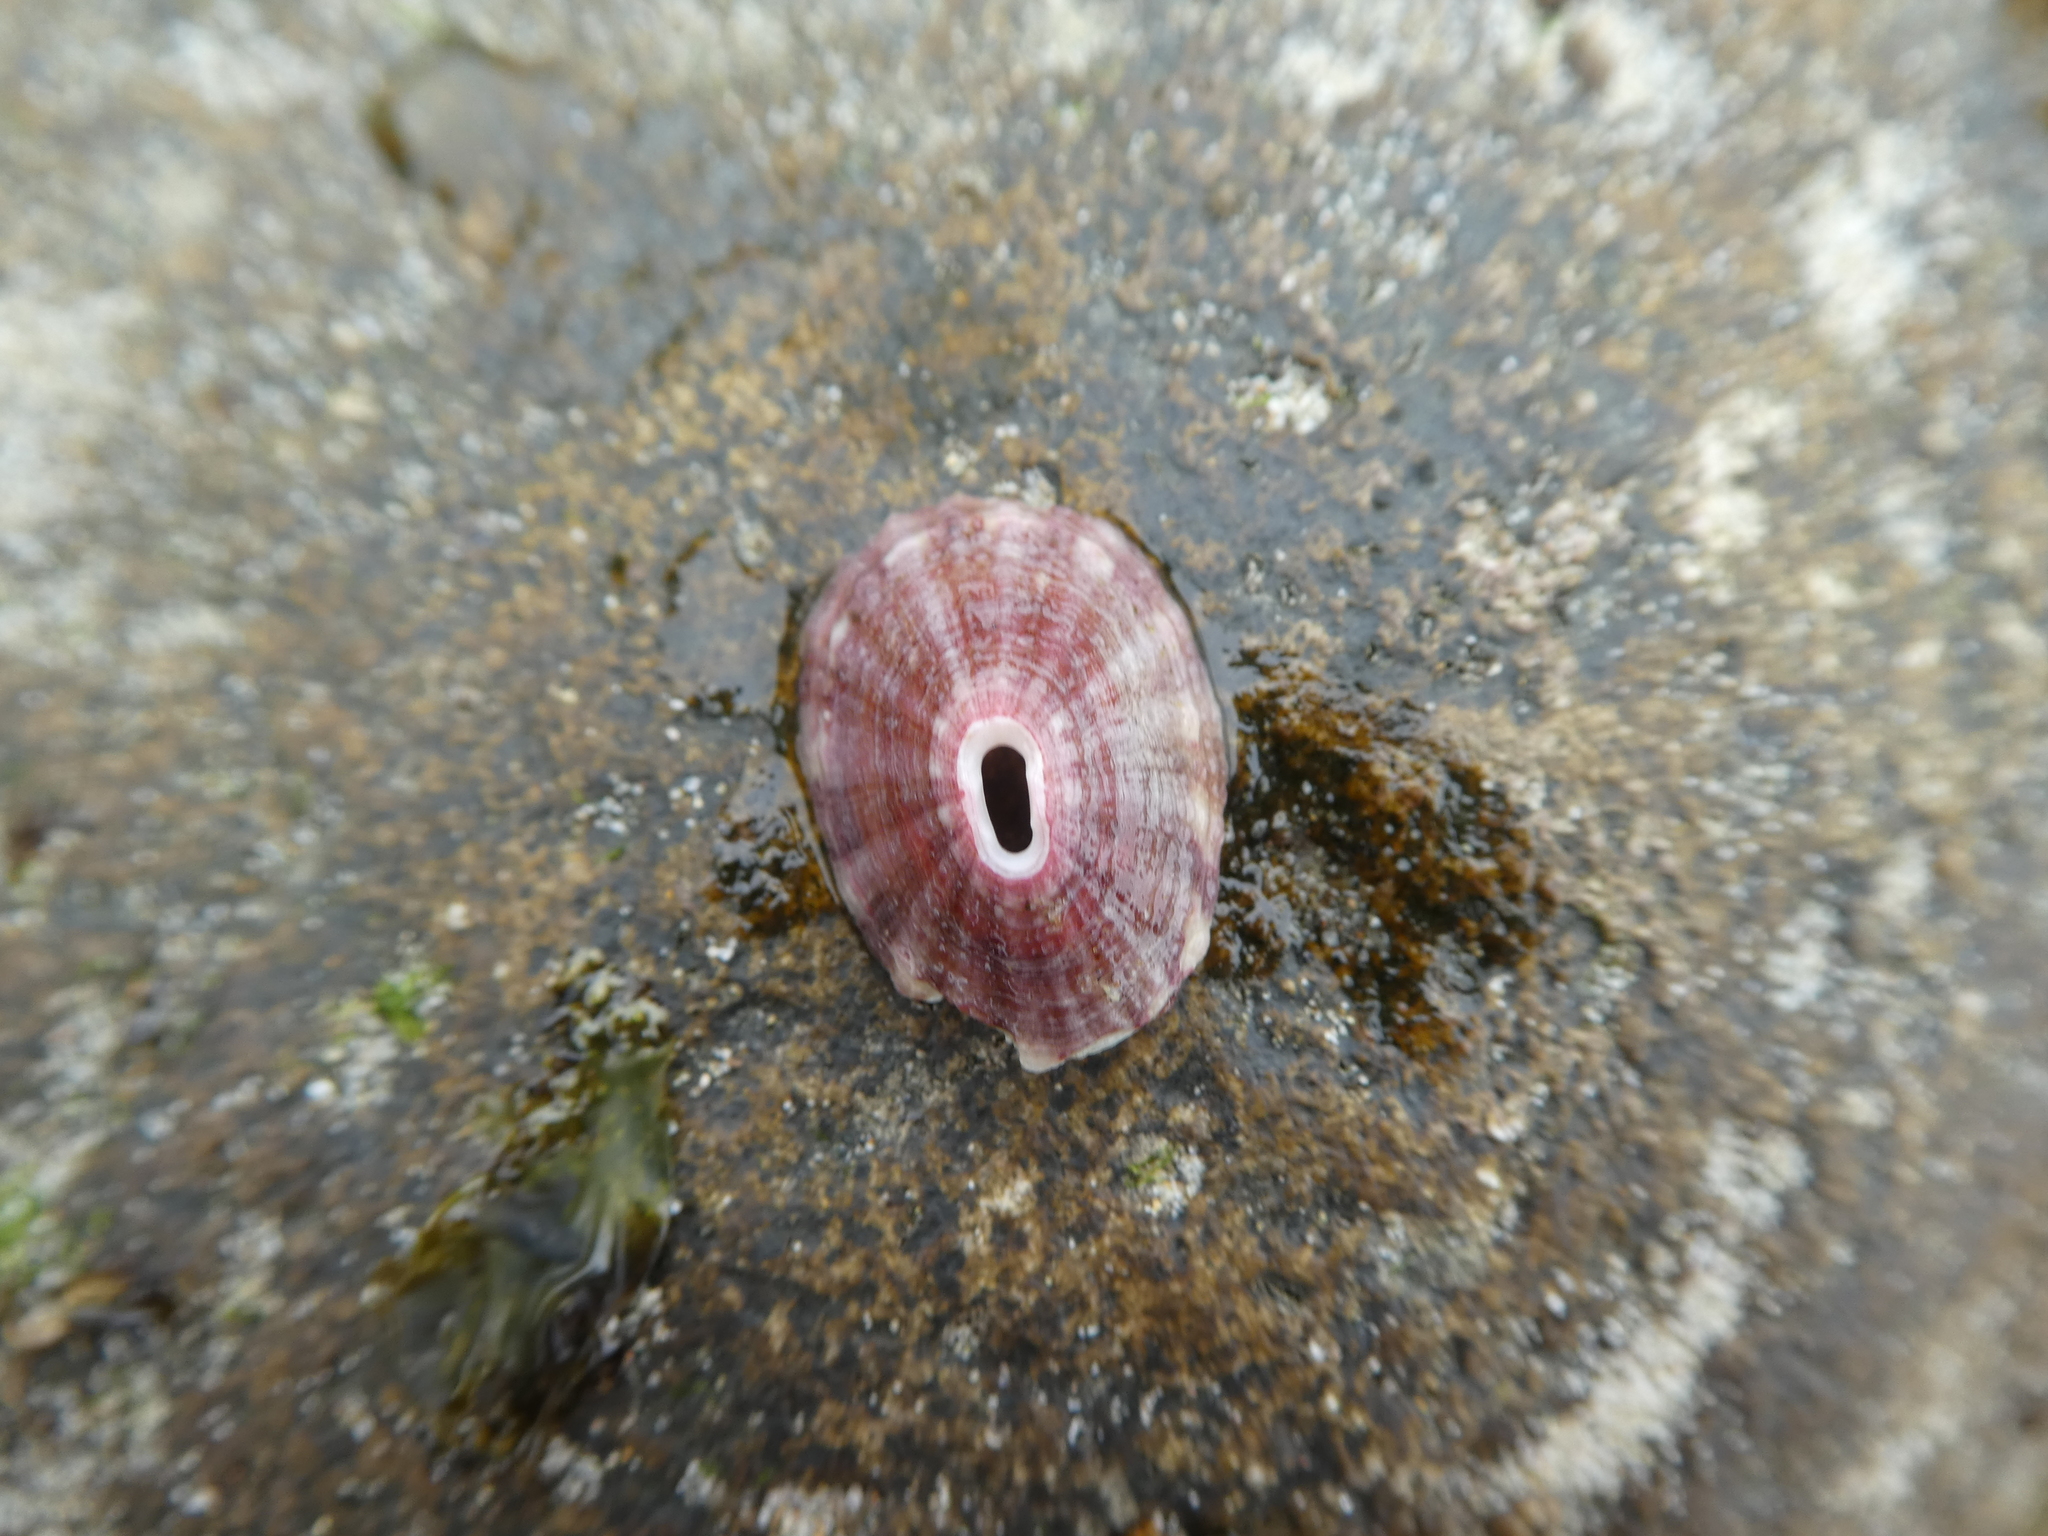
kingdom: Animalia
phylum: Mollusca
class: Gastropoda
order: Lepetellida
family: Fissurellidae
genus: Fissurella
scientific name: Fissurella volcano
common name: Volcano keyhole limpet
